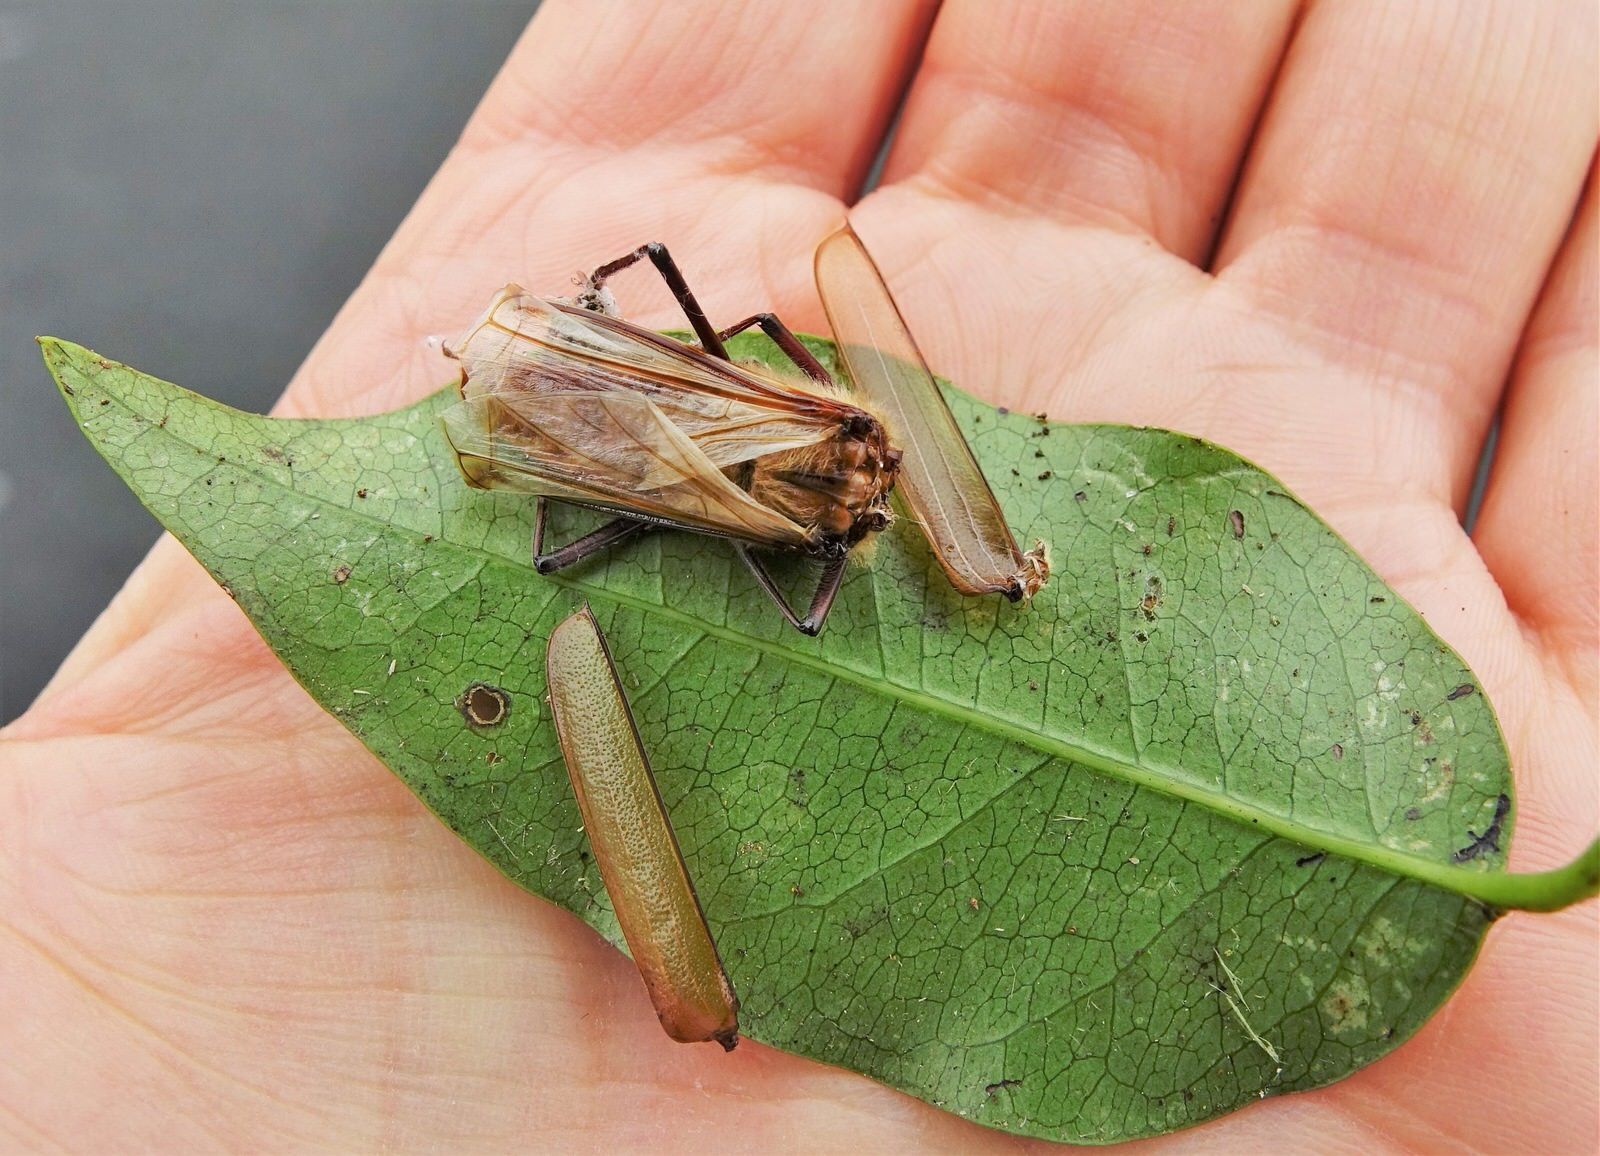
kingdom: Animalia
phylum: Arthropoda
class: Insecta
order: Coleoptera
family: Cerambycidae
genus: Ochrocydus
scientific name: Ochrocydus huttoni
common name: Kanuka longhorn
